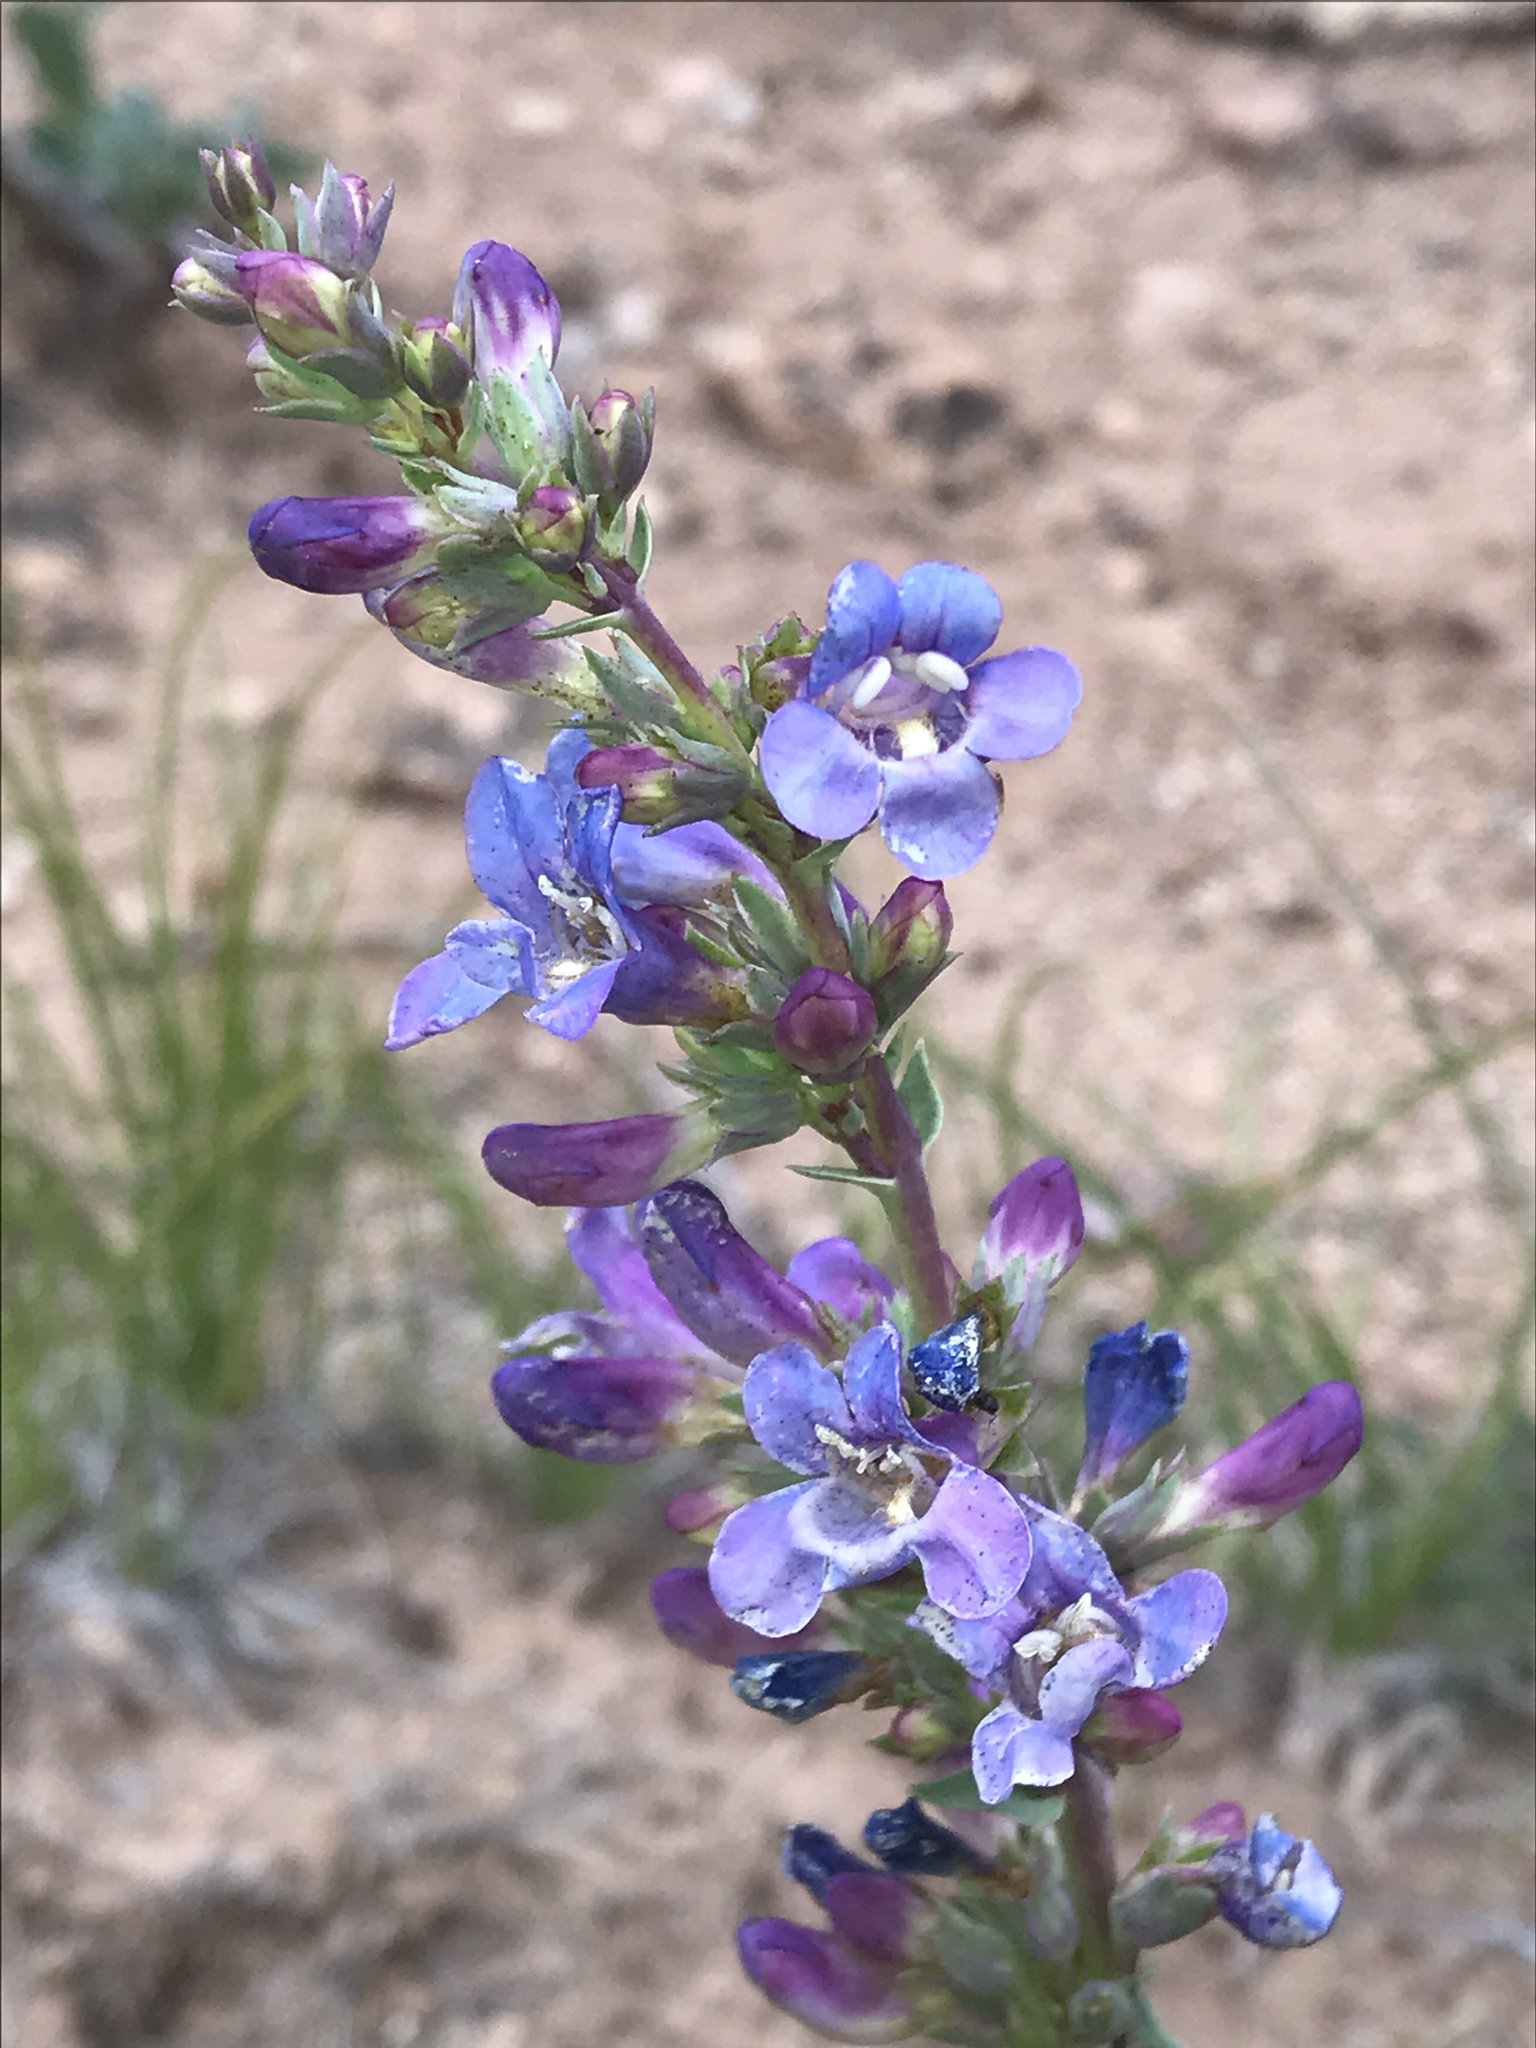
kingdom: Plantae
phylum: Tracheophyta
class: Magnoliopsida
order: Lamiales
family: Plantaginaceae
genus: Penstemon
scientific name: Penstemon lentus
